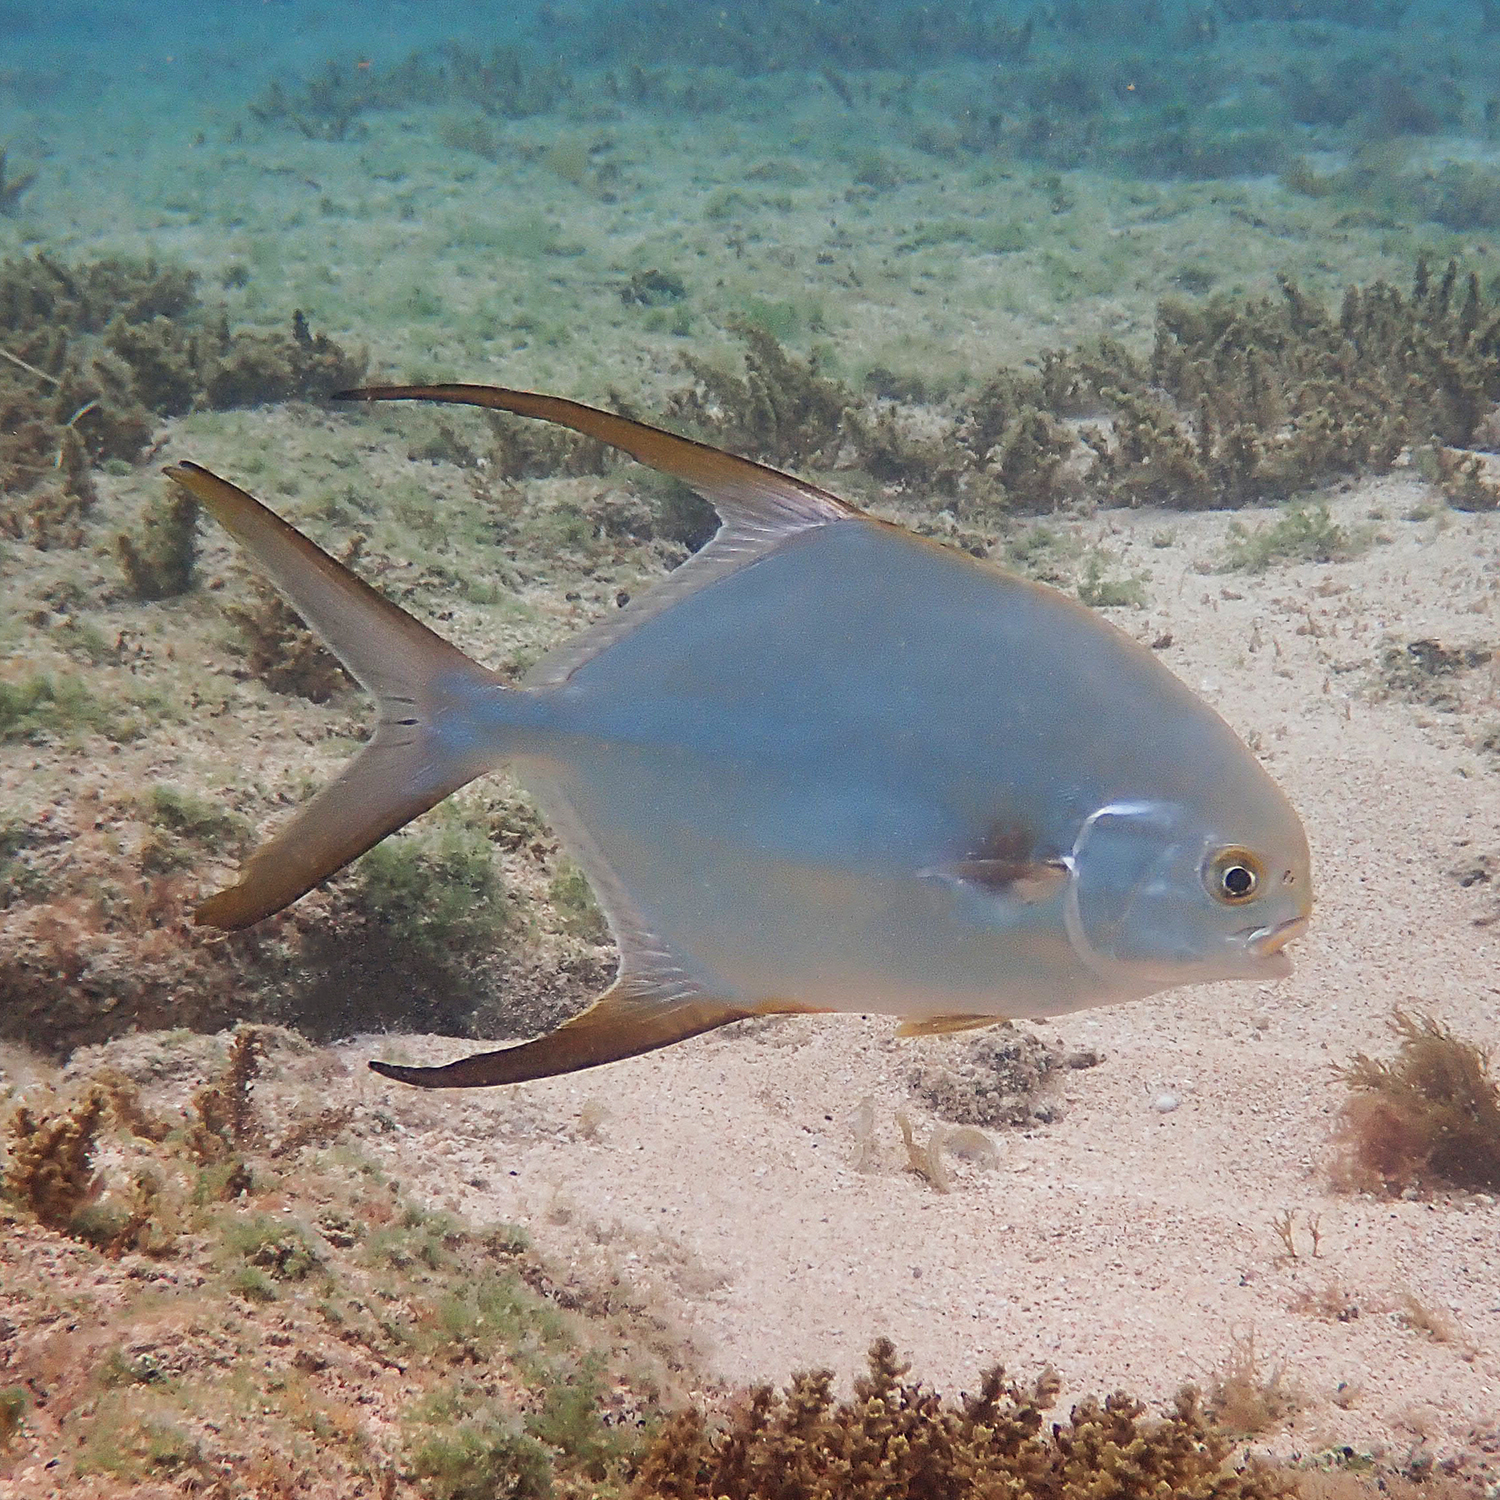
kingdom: Animalia
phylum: Chordata
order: Perciformes
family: Carangidae
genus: Trachinotus
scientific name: Trachinotus blochii
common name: Snubnose pompano
